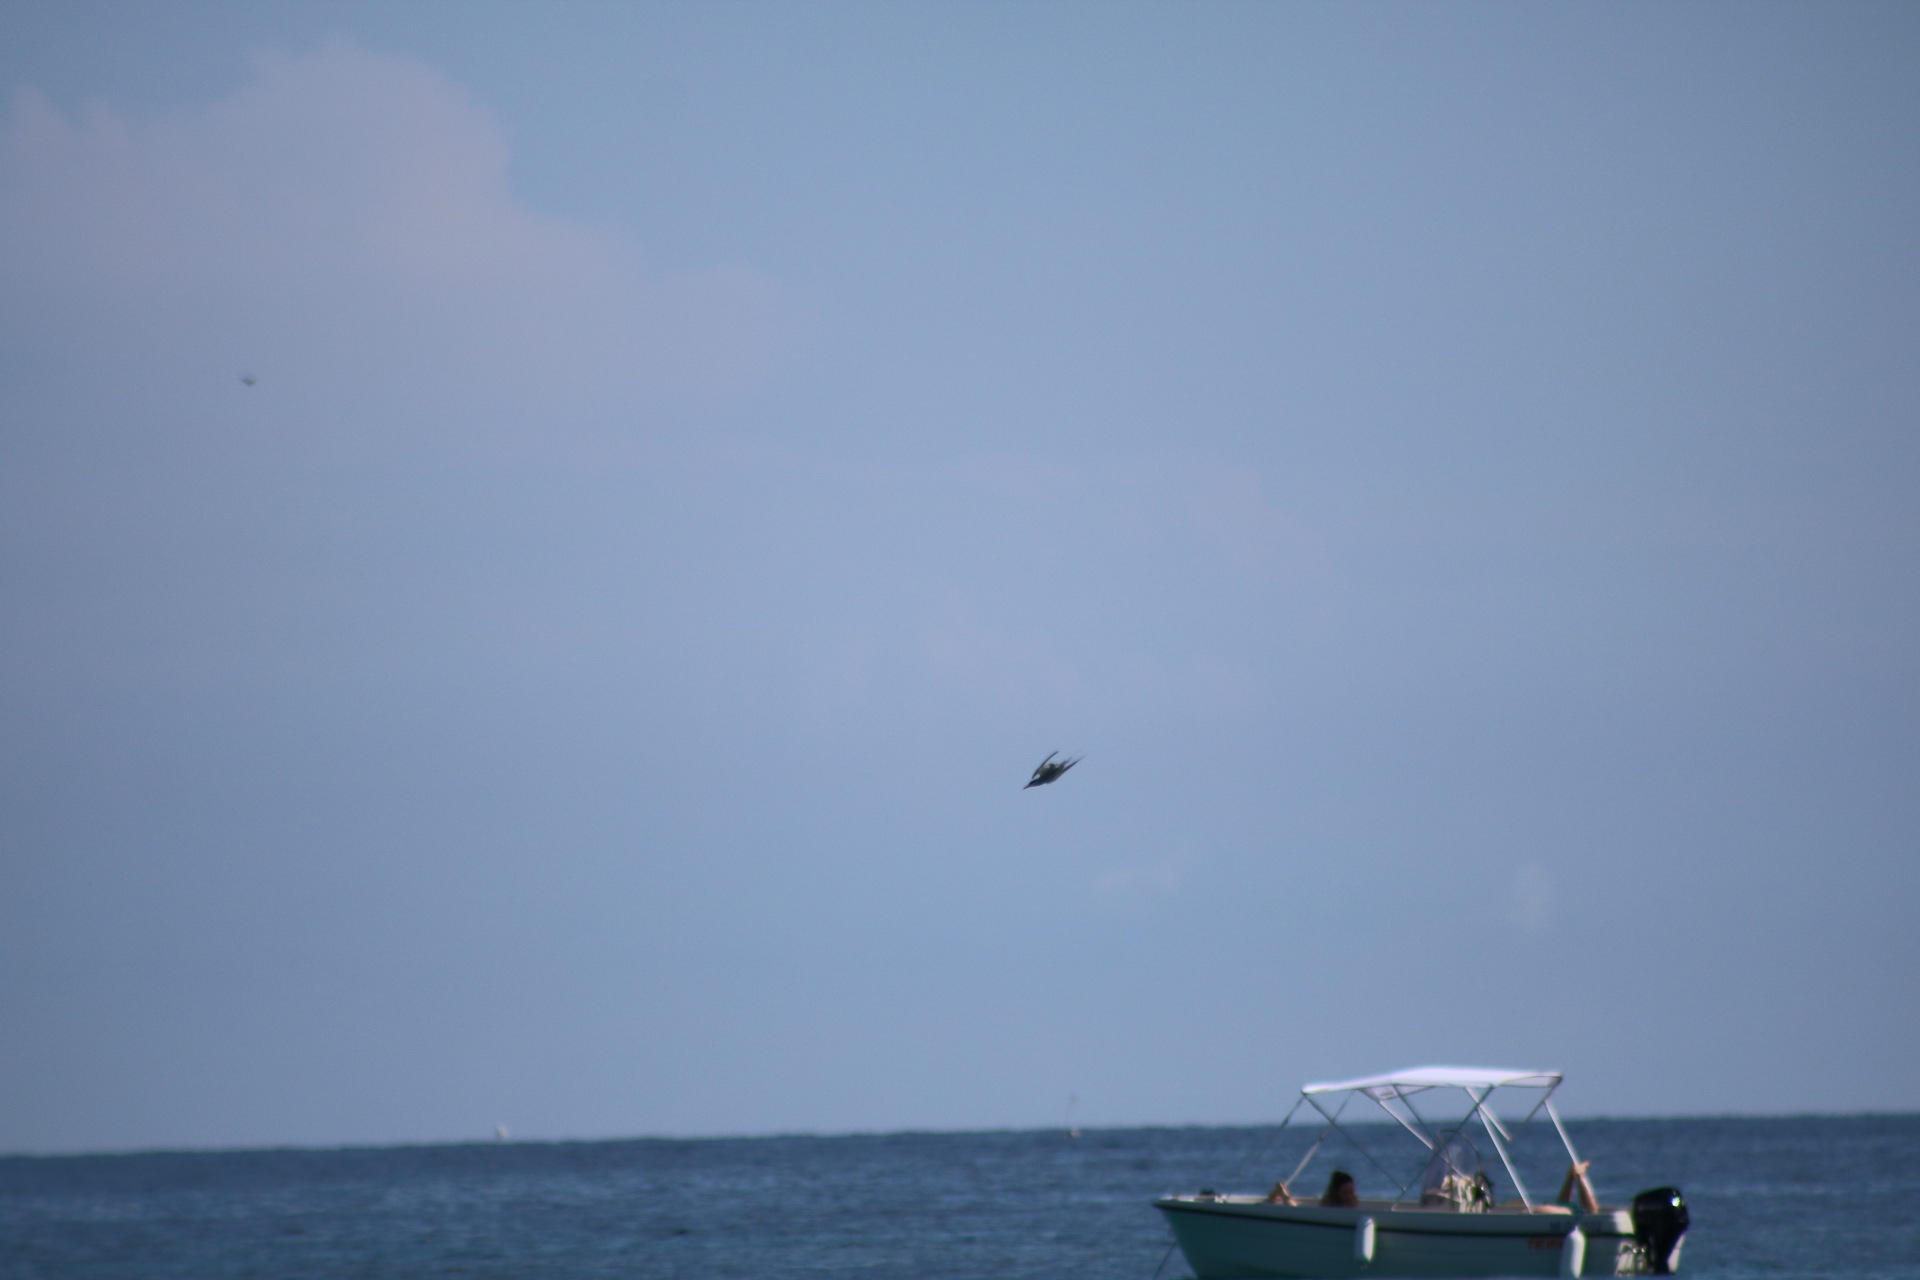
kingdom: Animalia
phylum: Chordata
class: Aves
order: Charadriiformes
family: Laridae
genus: Sterna
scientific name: Sterna hirundo
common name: Common tern
